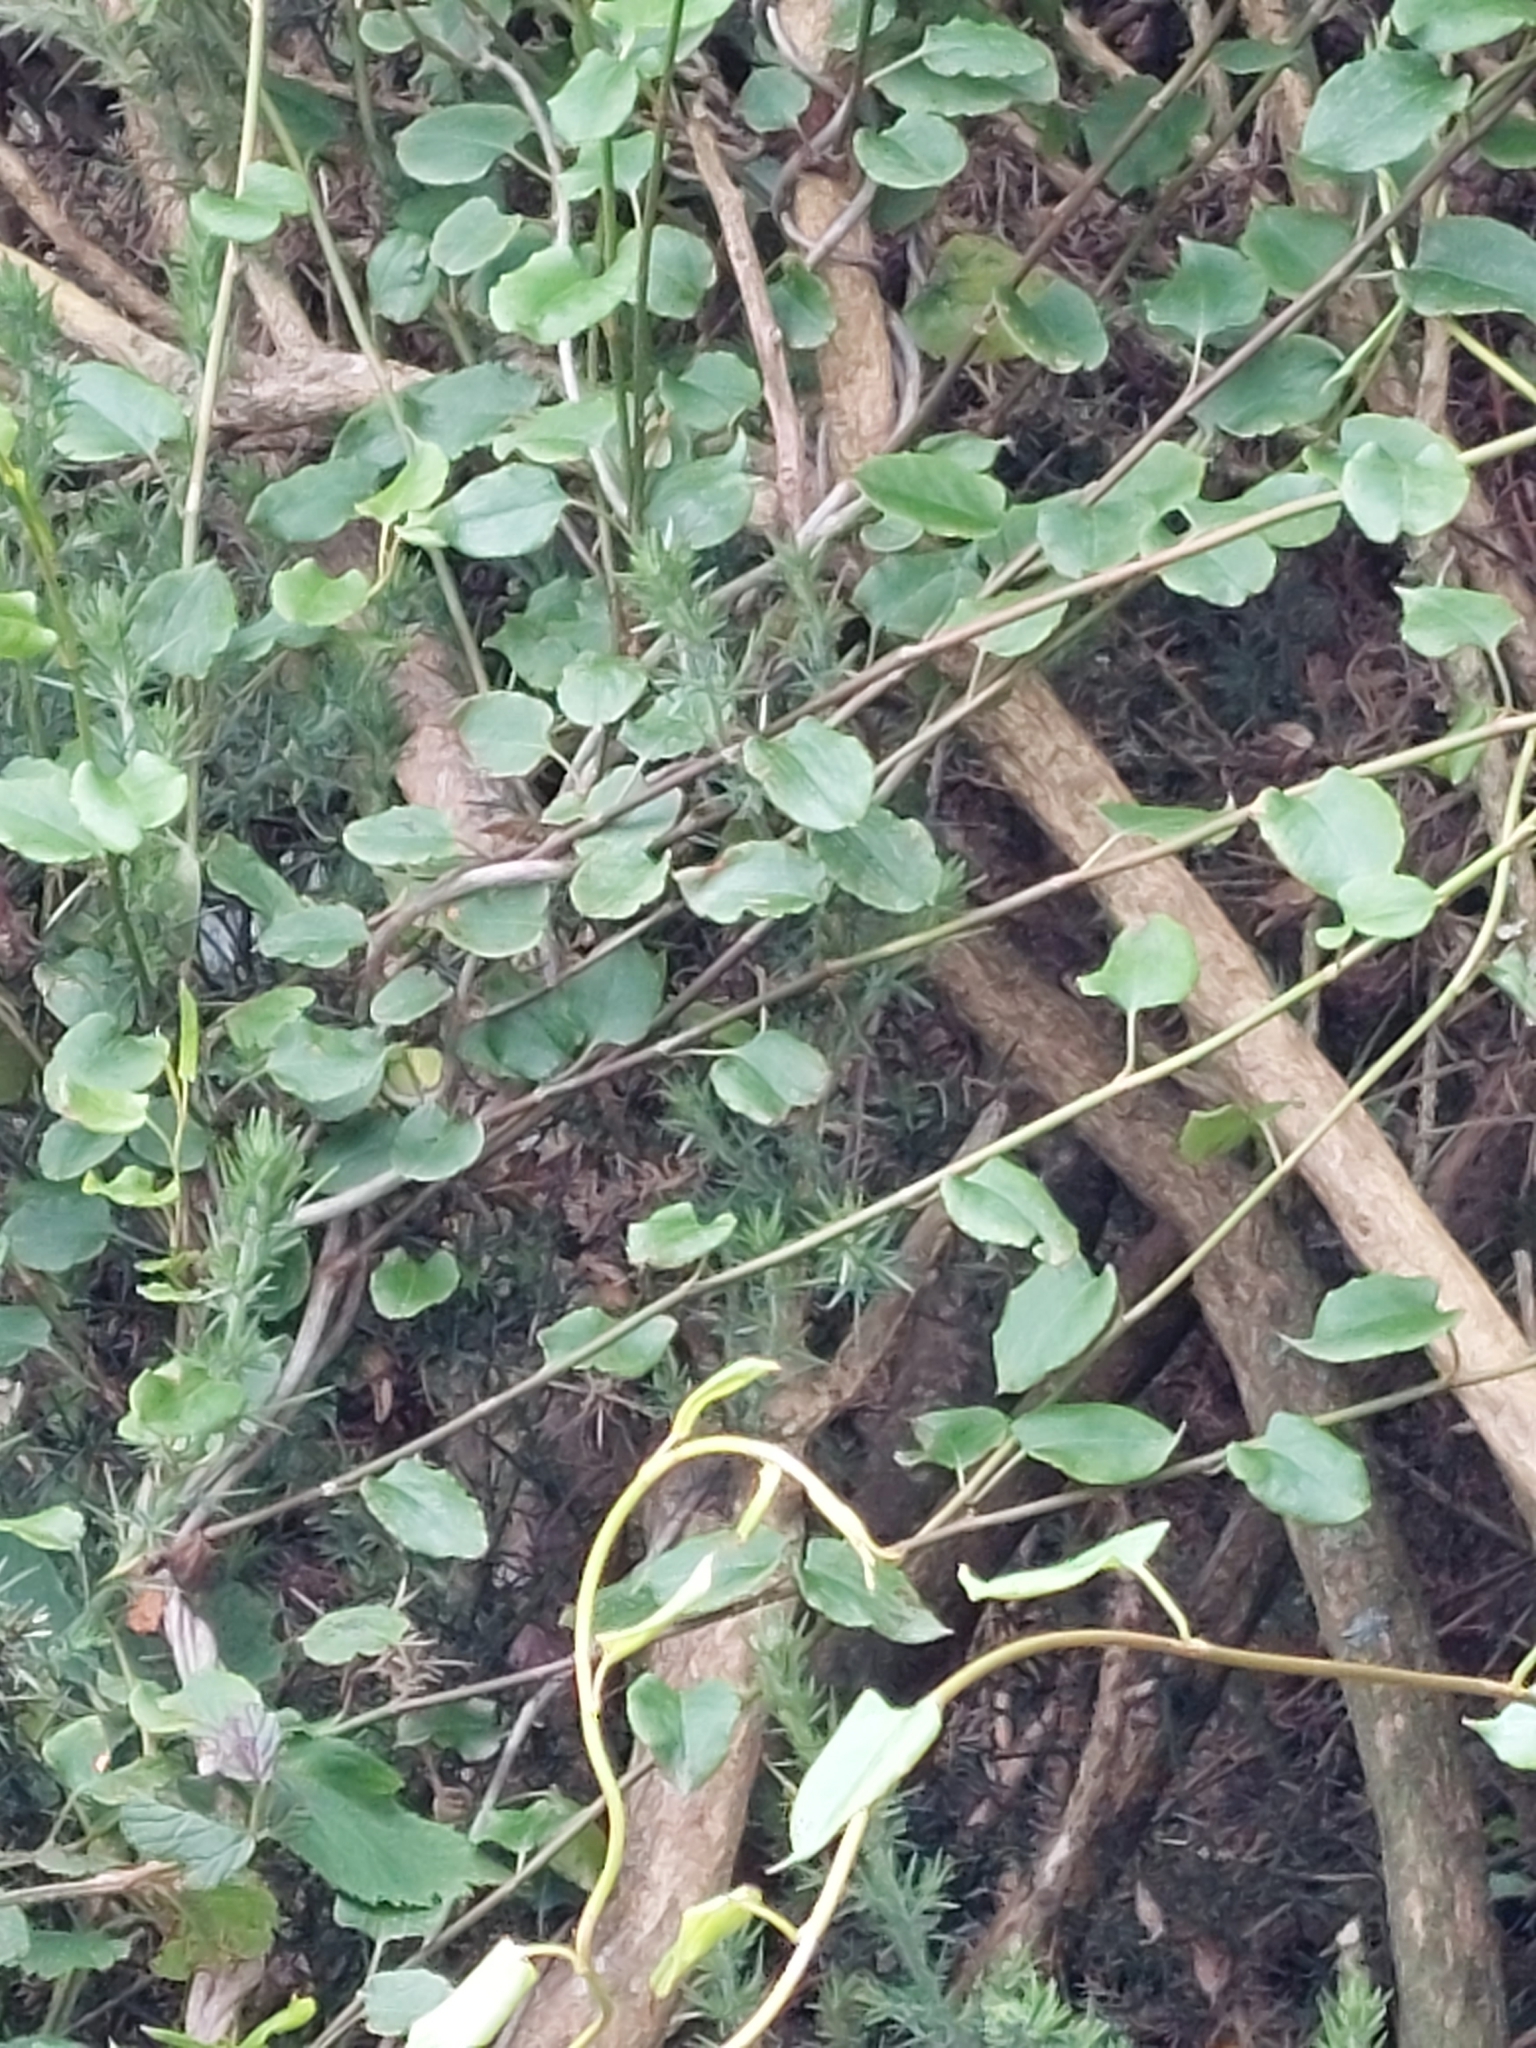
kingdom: Plantae
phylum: Tracheophyta
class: Magnoliopsida
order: Caryophyllales
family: Polygonaceae
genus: Muehlenbeckia
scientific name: Muehlenbeckia australis
